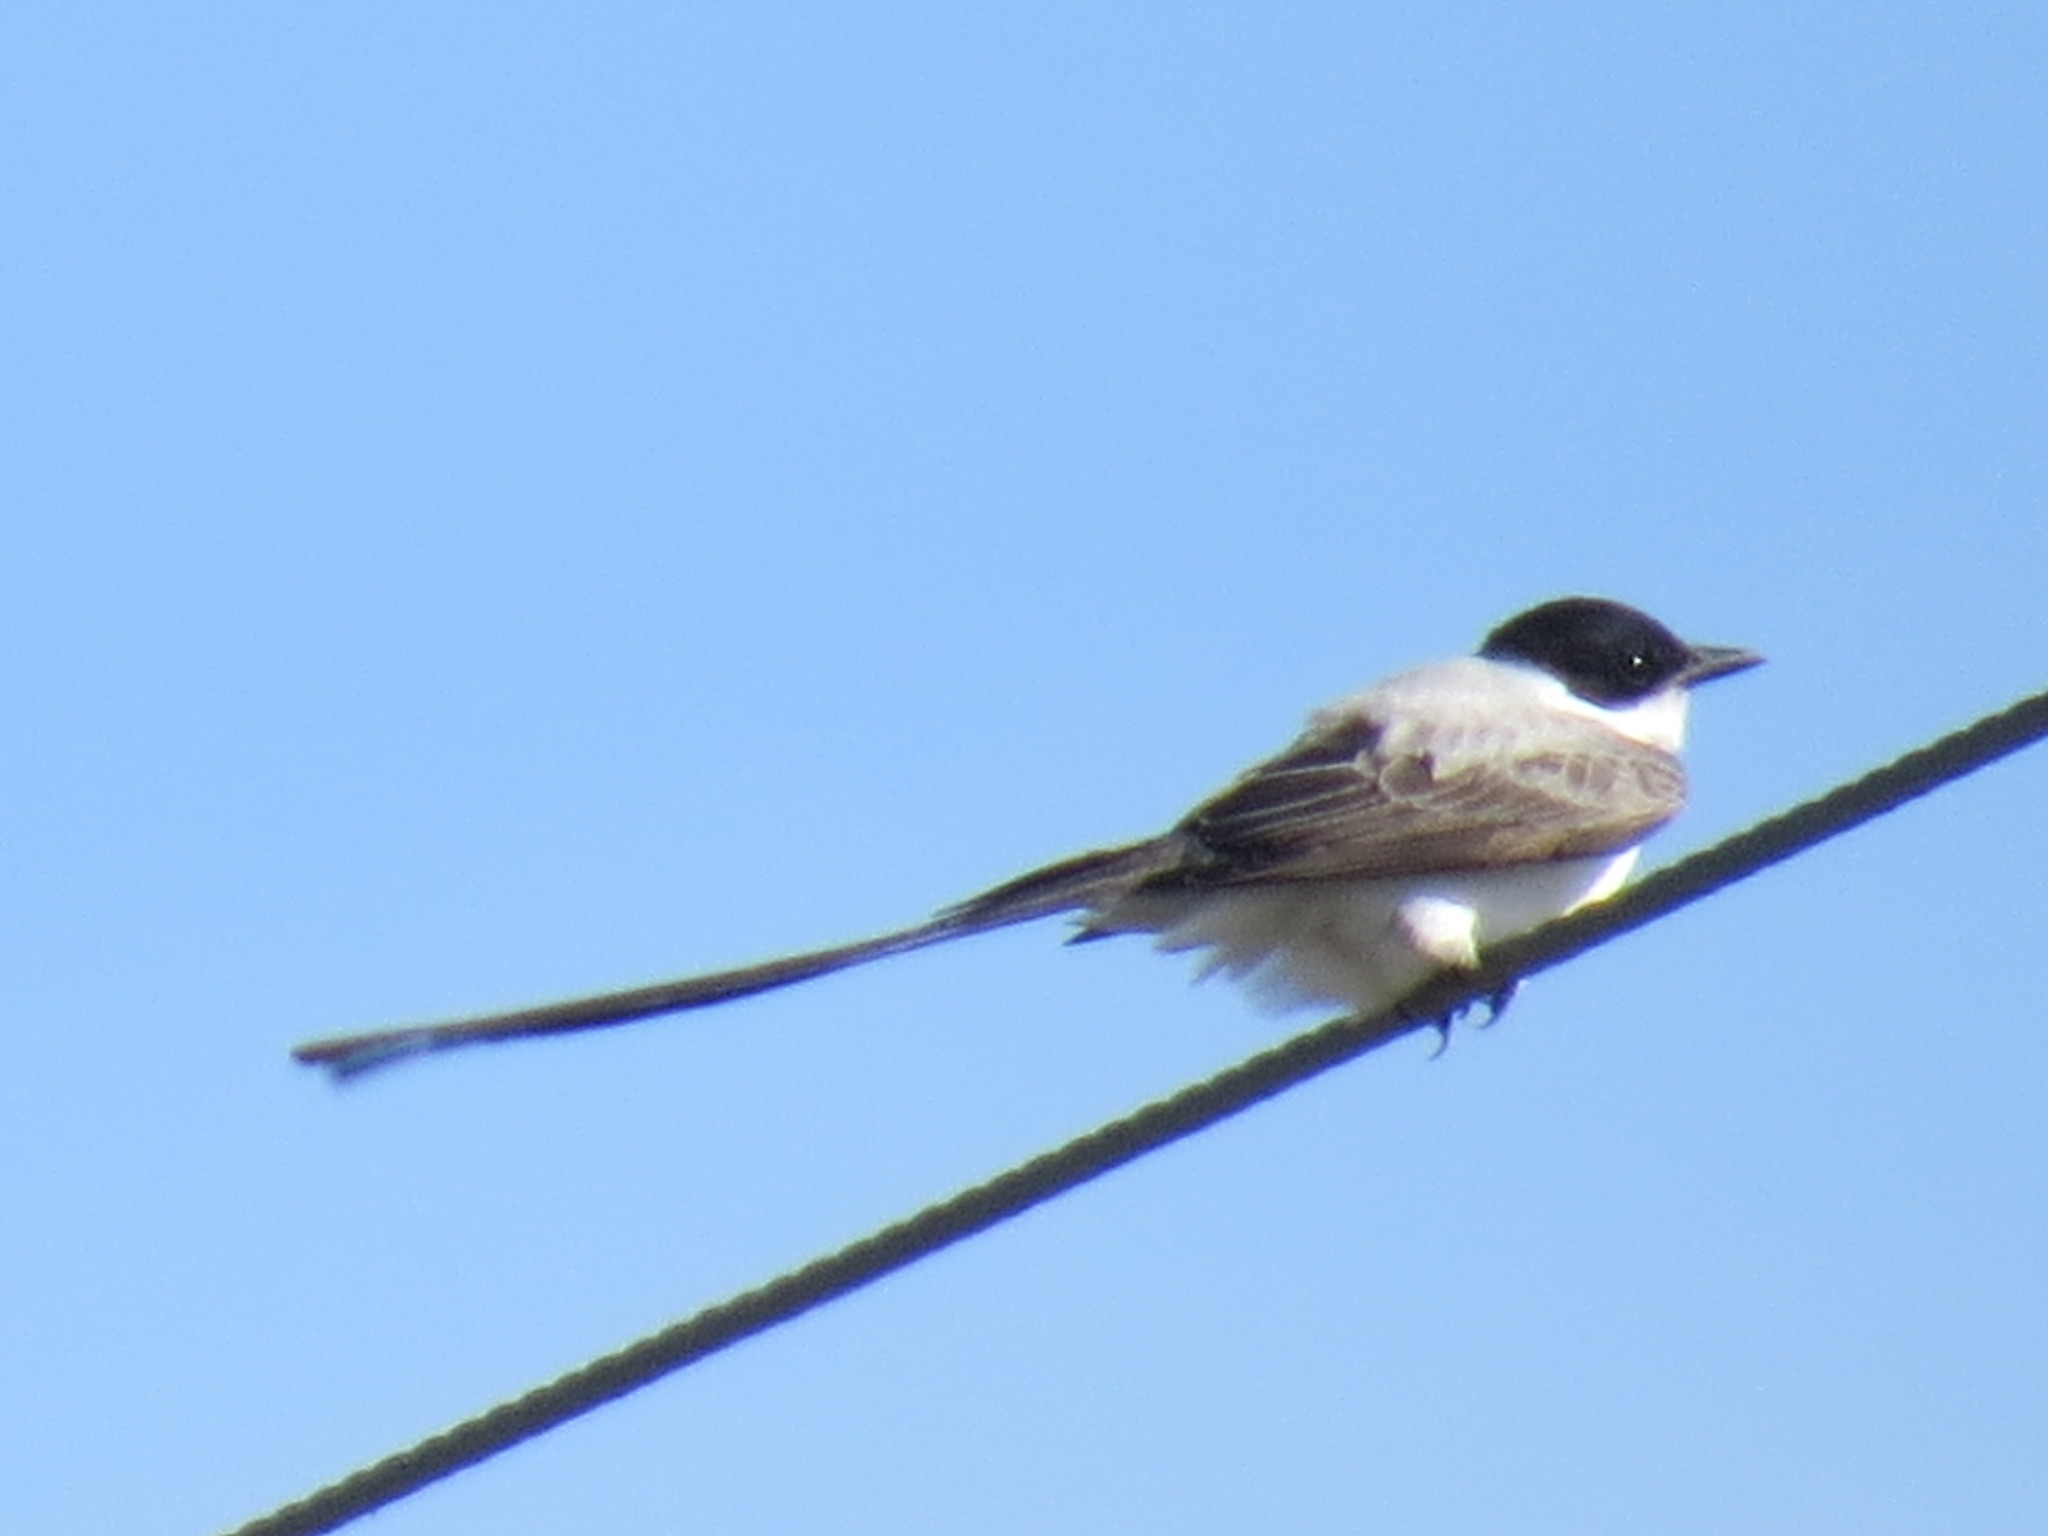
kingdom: Animalia
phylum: Chordata
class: Aves
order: Passeriformes
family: Tyrannidae
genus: Tyrannus
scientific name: Tyrannus savana
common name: Fork-tailed flycatcher
